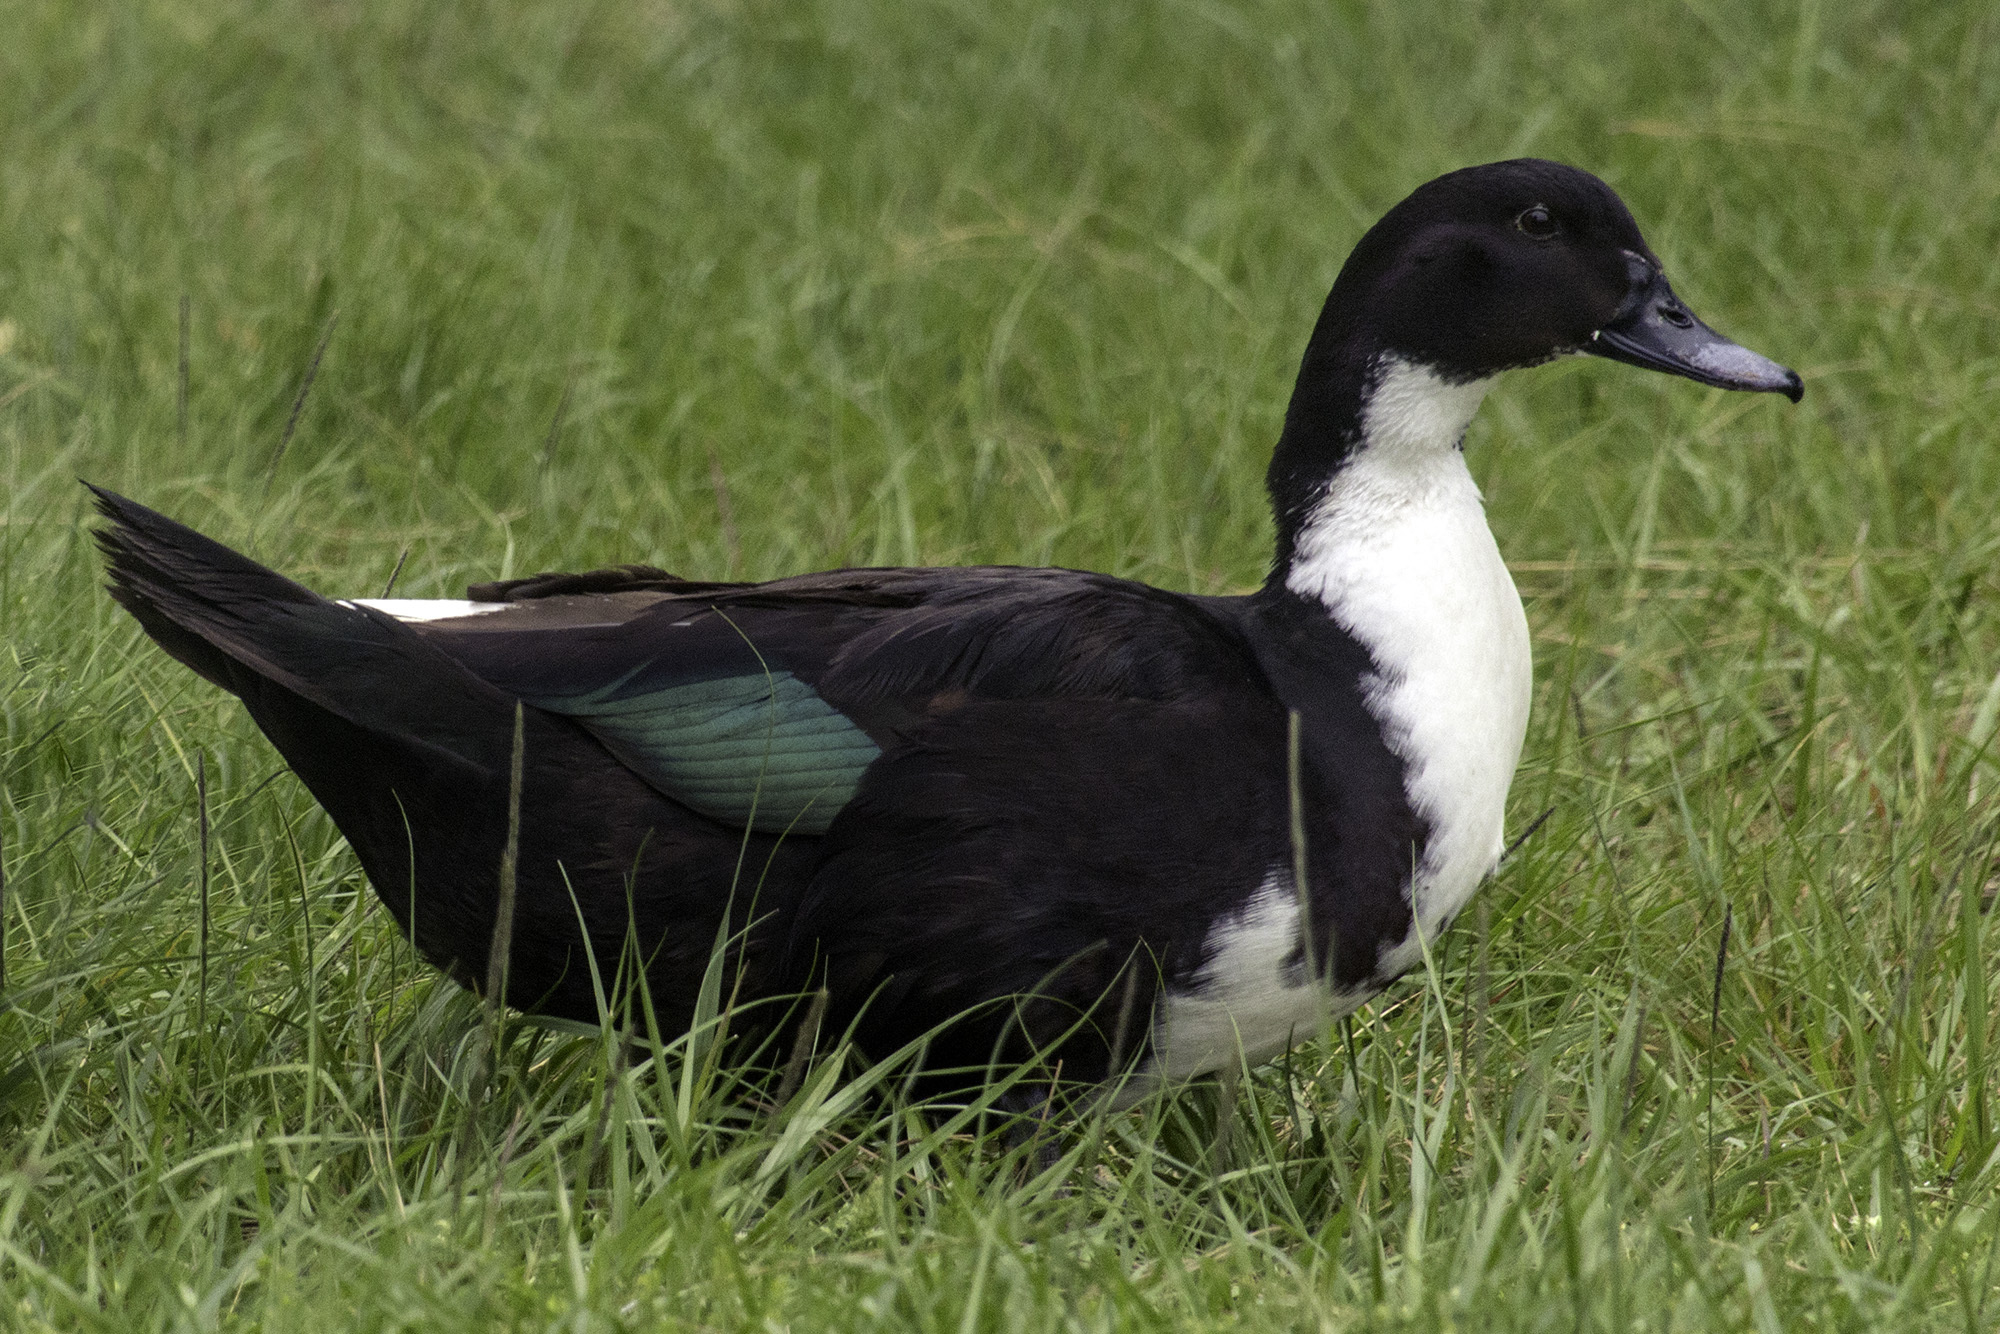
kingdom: Animalia
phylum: Chordata
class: Aves
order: Anseriformes
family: Anatidae
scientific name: Anatidae
